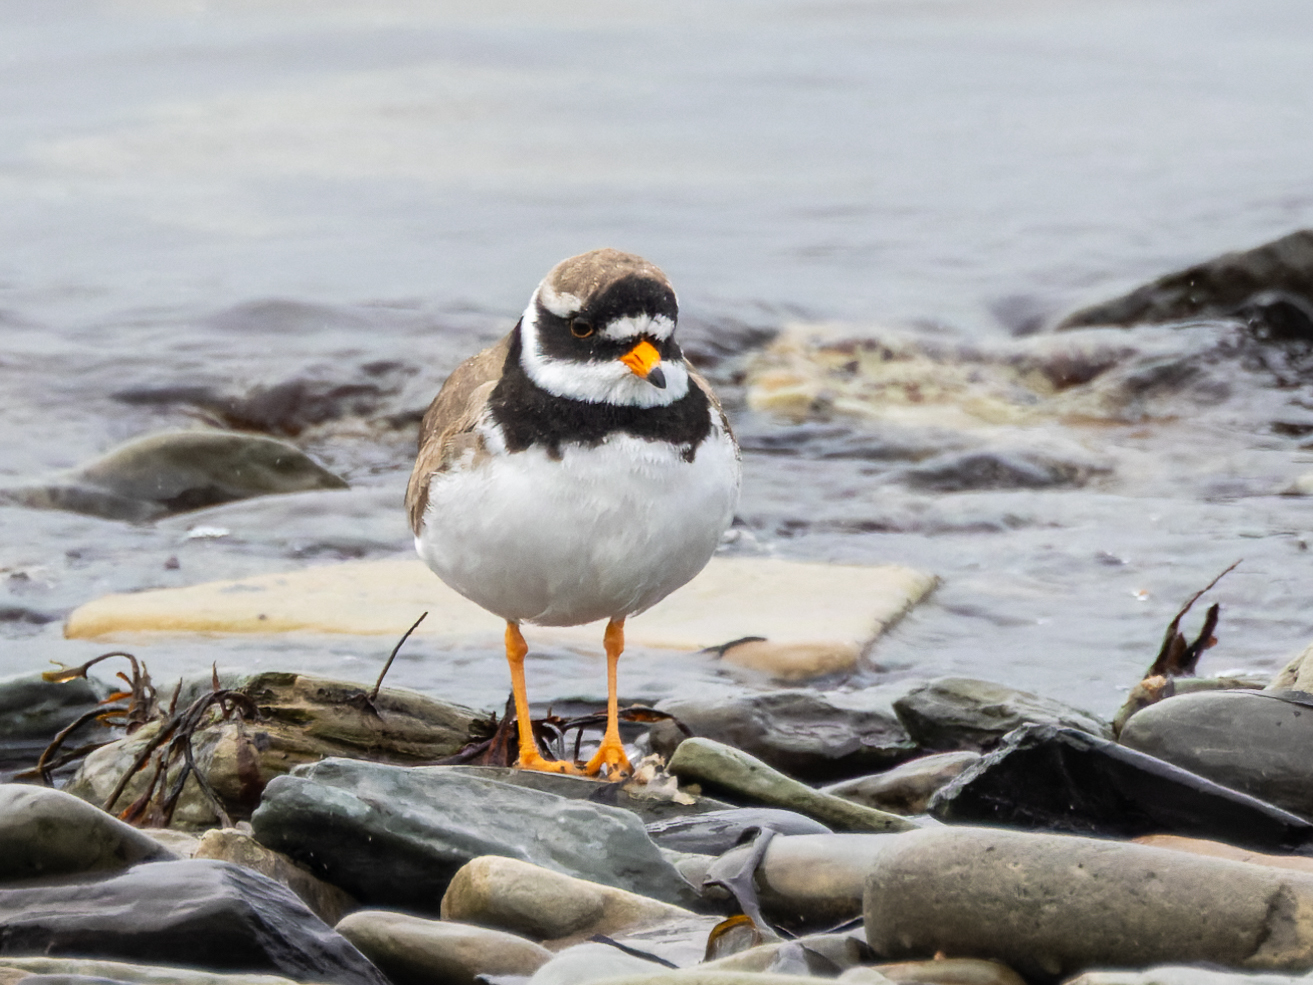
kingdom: Animalia
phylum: Chordata
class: Aves
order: Charadriiformes
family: Charadriidae
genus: Charadrius
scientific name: Charadrius hiaticula
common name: Common ringed plover
